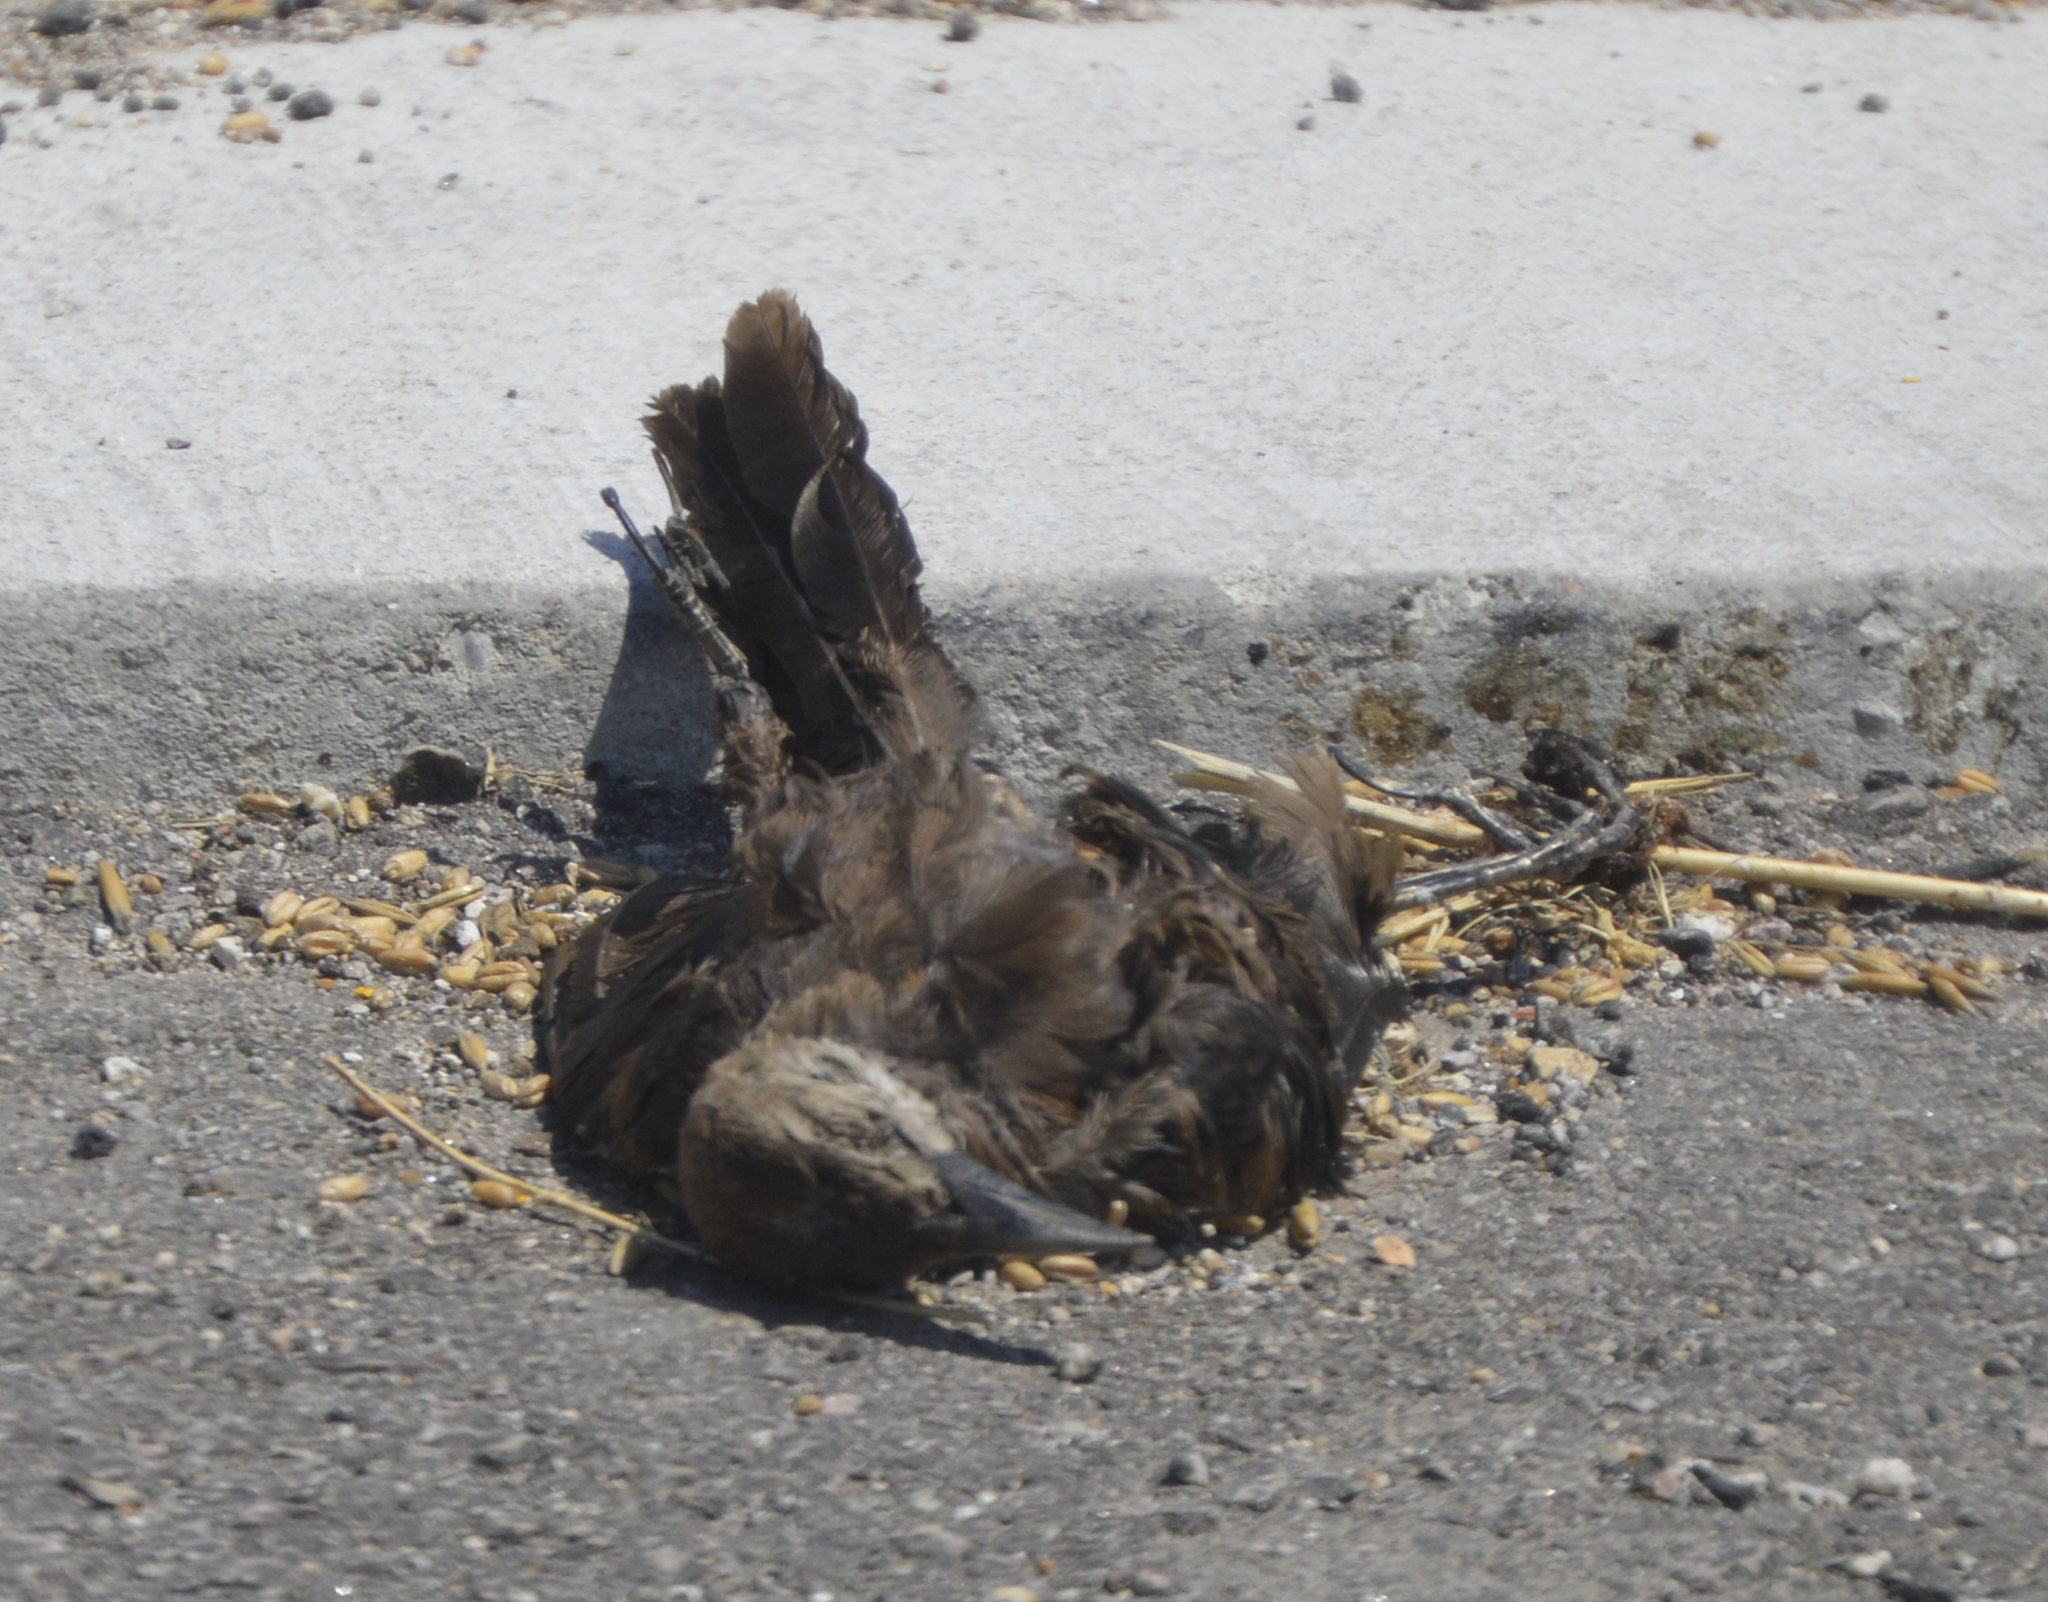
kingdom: Animalia
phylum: Chordata
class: Aves
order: Passeriformes
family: Icteridae
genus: Quiscalus
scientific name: Quiscalus mexicanus
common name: Great-tailed grackle
